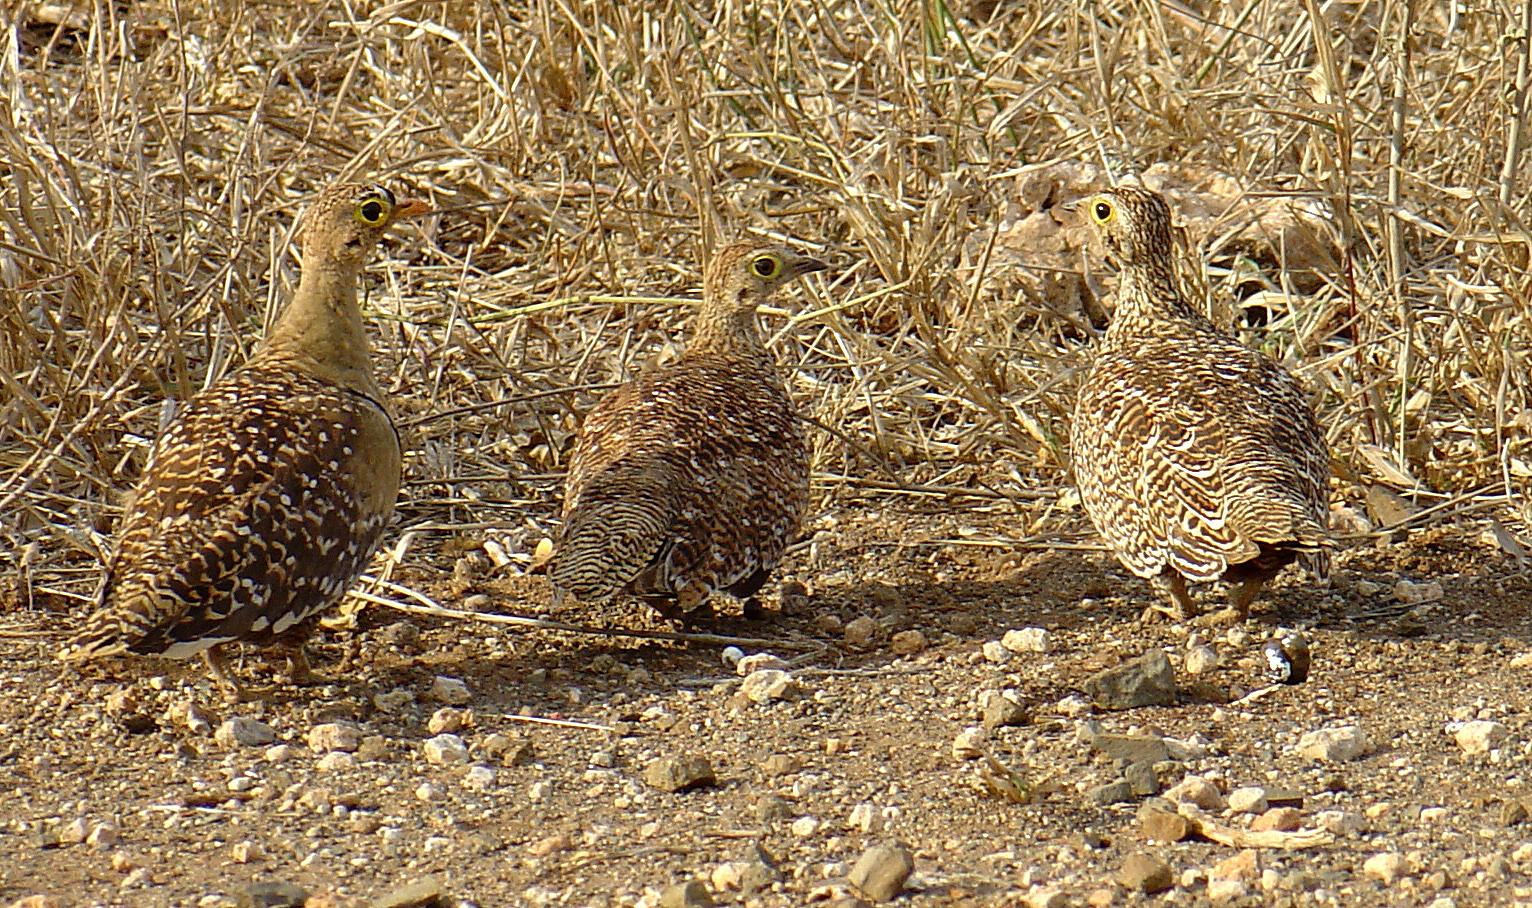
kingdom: Animalia
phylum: Chordata
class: Aves
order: Pteroclidiformes
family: Pteroclididae
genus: Pterocles
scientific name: Pterocles bicinctus
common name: Double-banded sandgrouse
